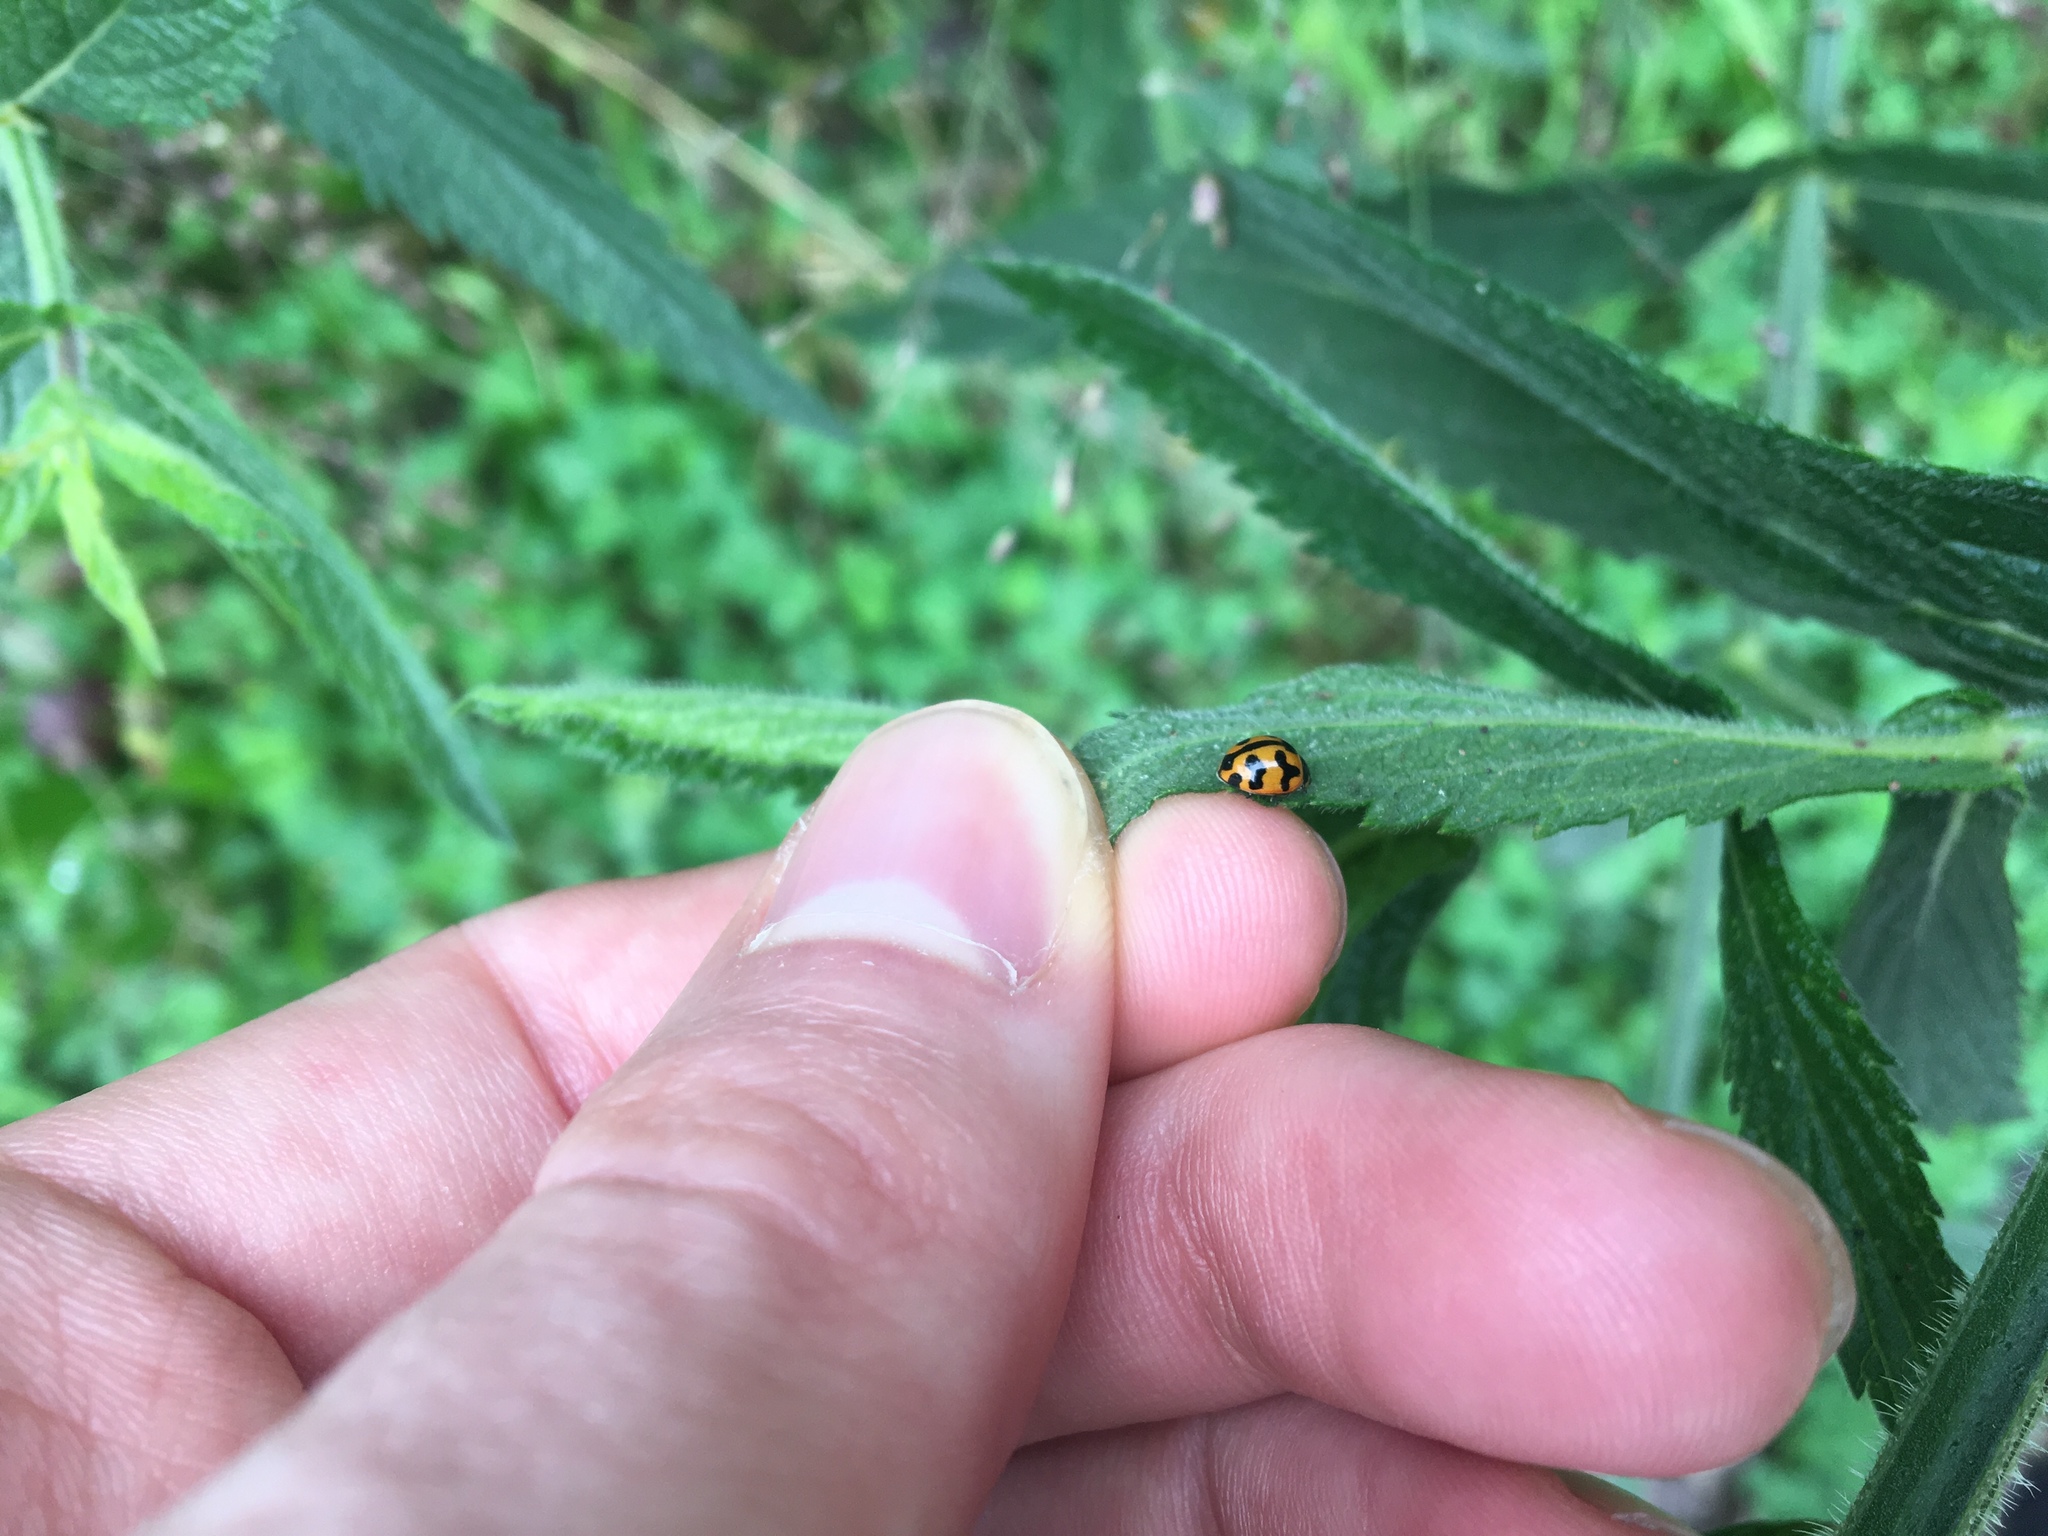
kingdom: Animalia
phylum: Arthropoda
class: Insecta
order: Coleoptera
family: Coccinellidae
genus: Coccinella
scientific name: Coccinella transversalis
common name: Transverse lady beetle
